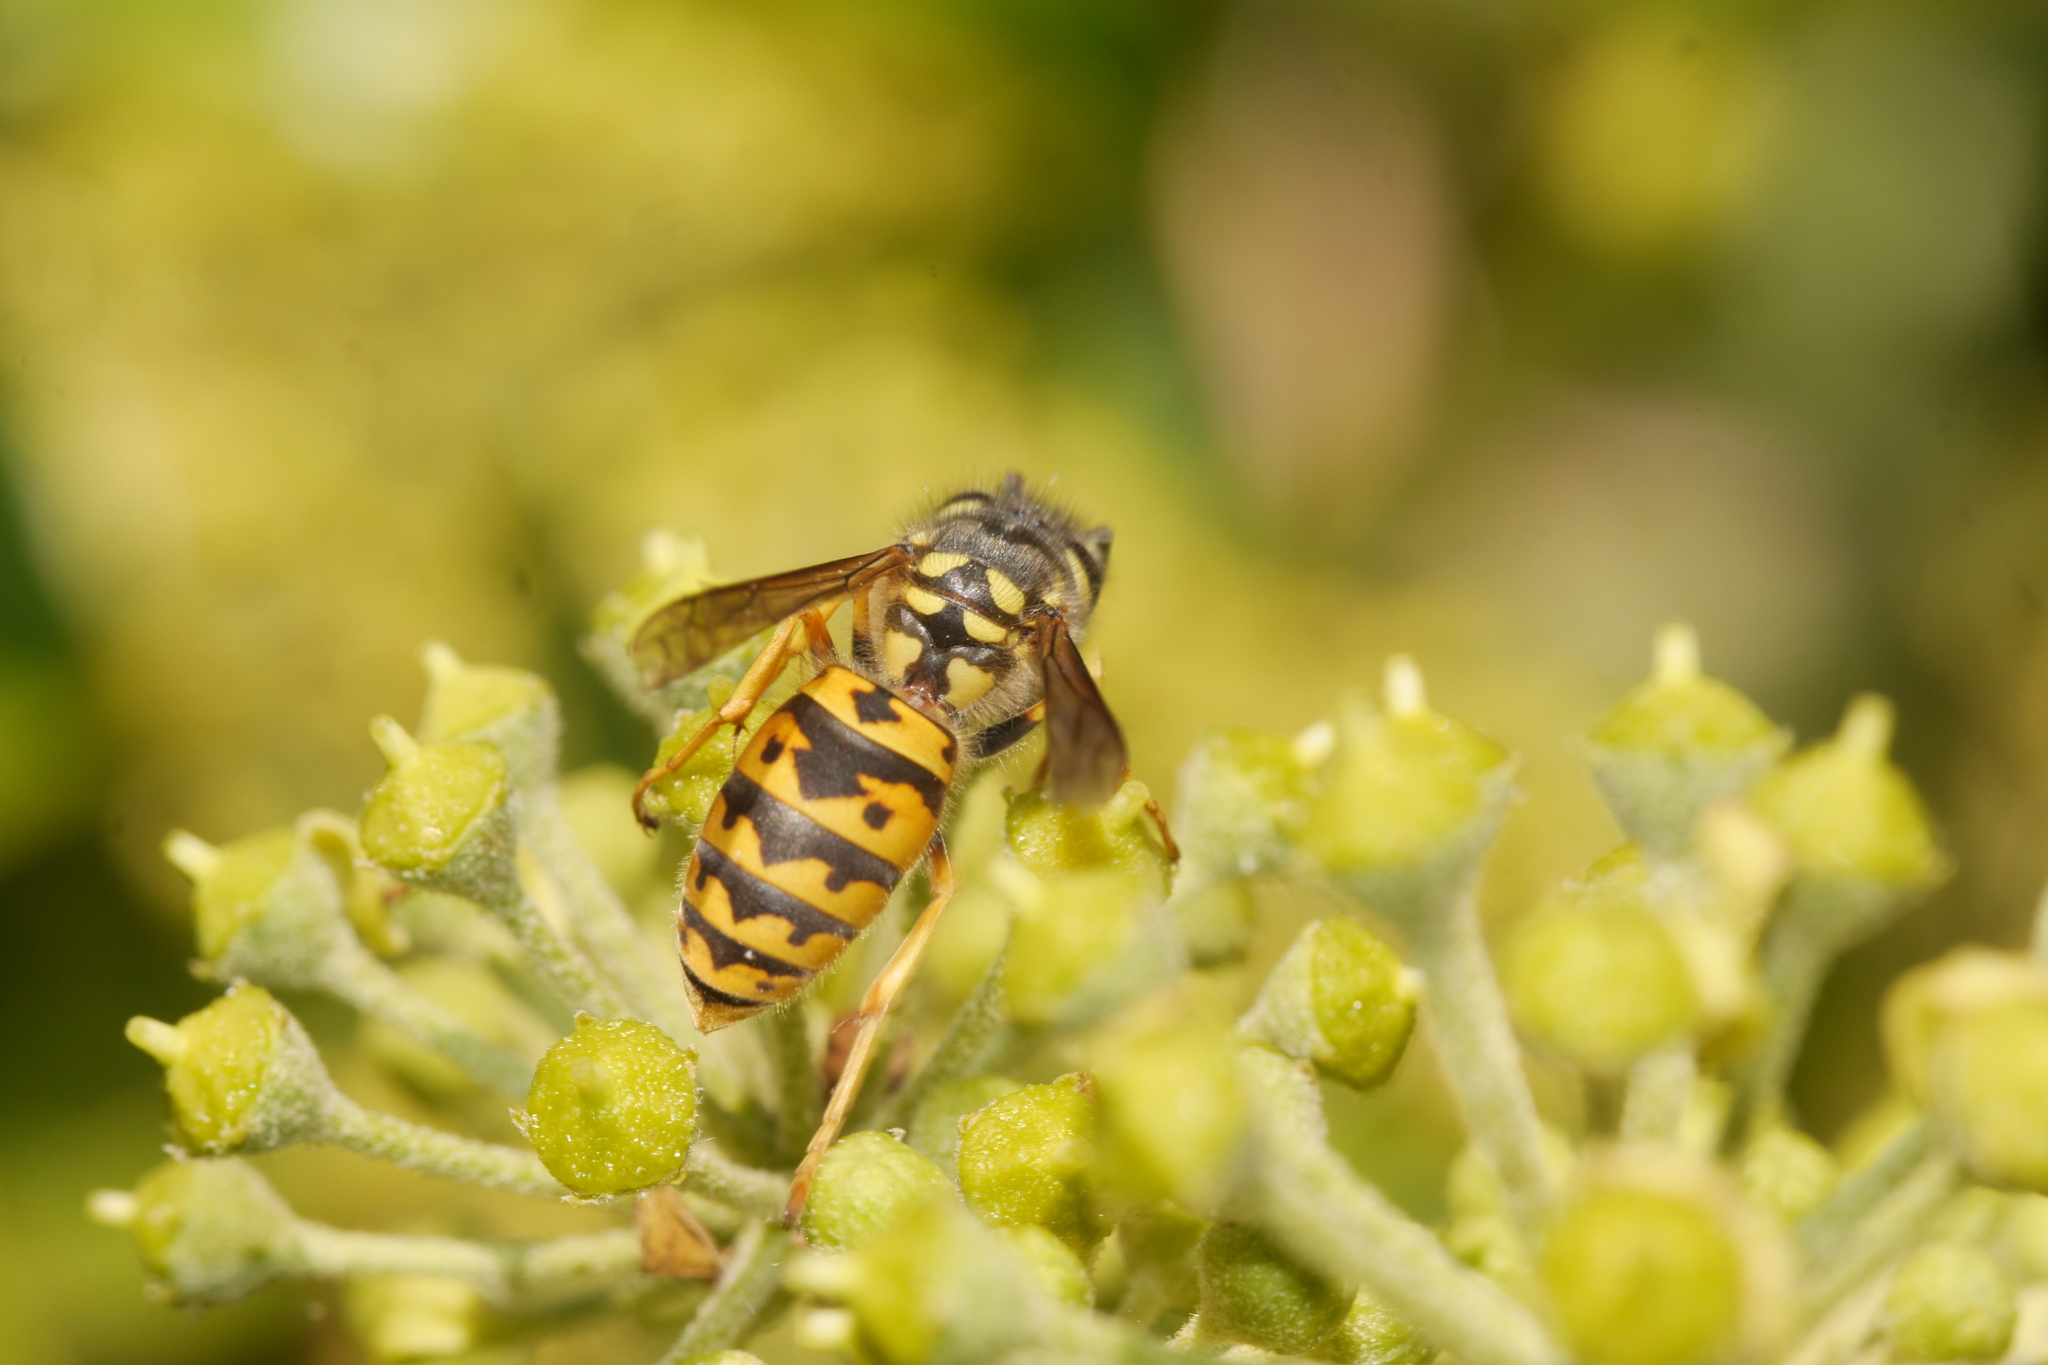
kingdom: Animalia
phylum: Arthropoda
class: Insecta
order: Hymenoptera
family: Vespidae
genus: Vespula
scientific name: Vespula germanica
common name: German wasp
